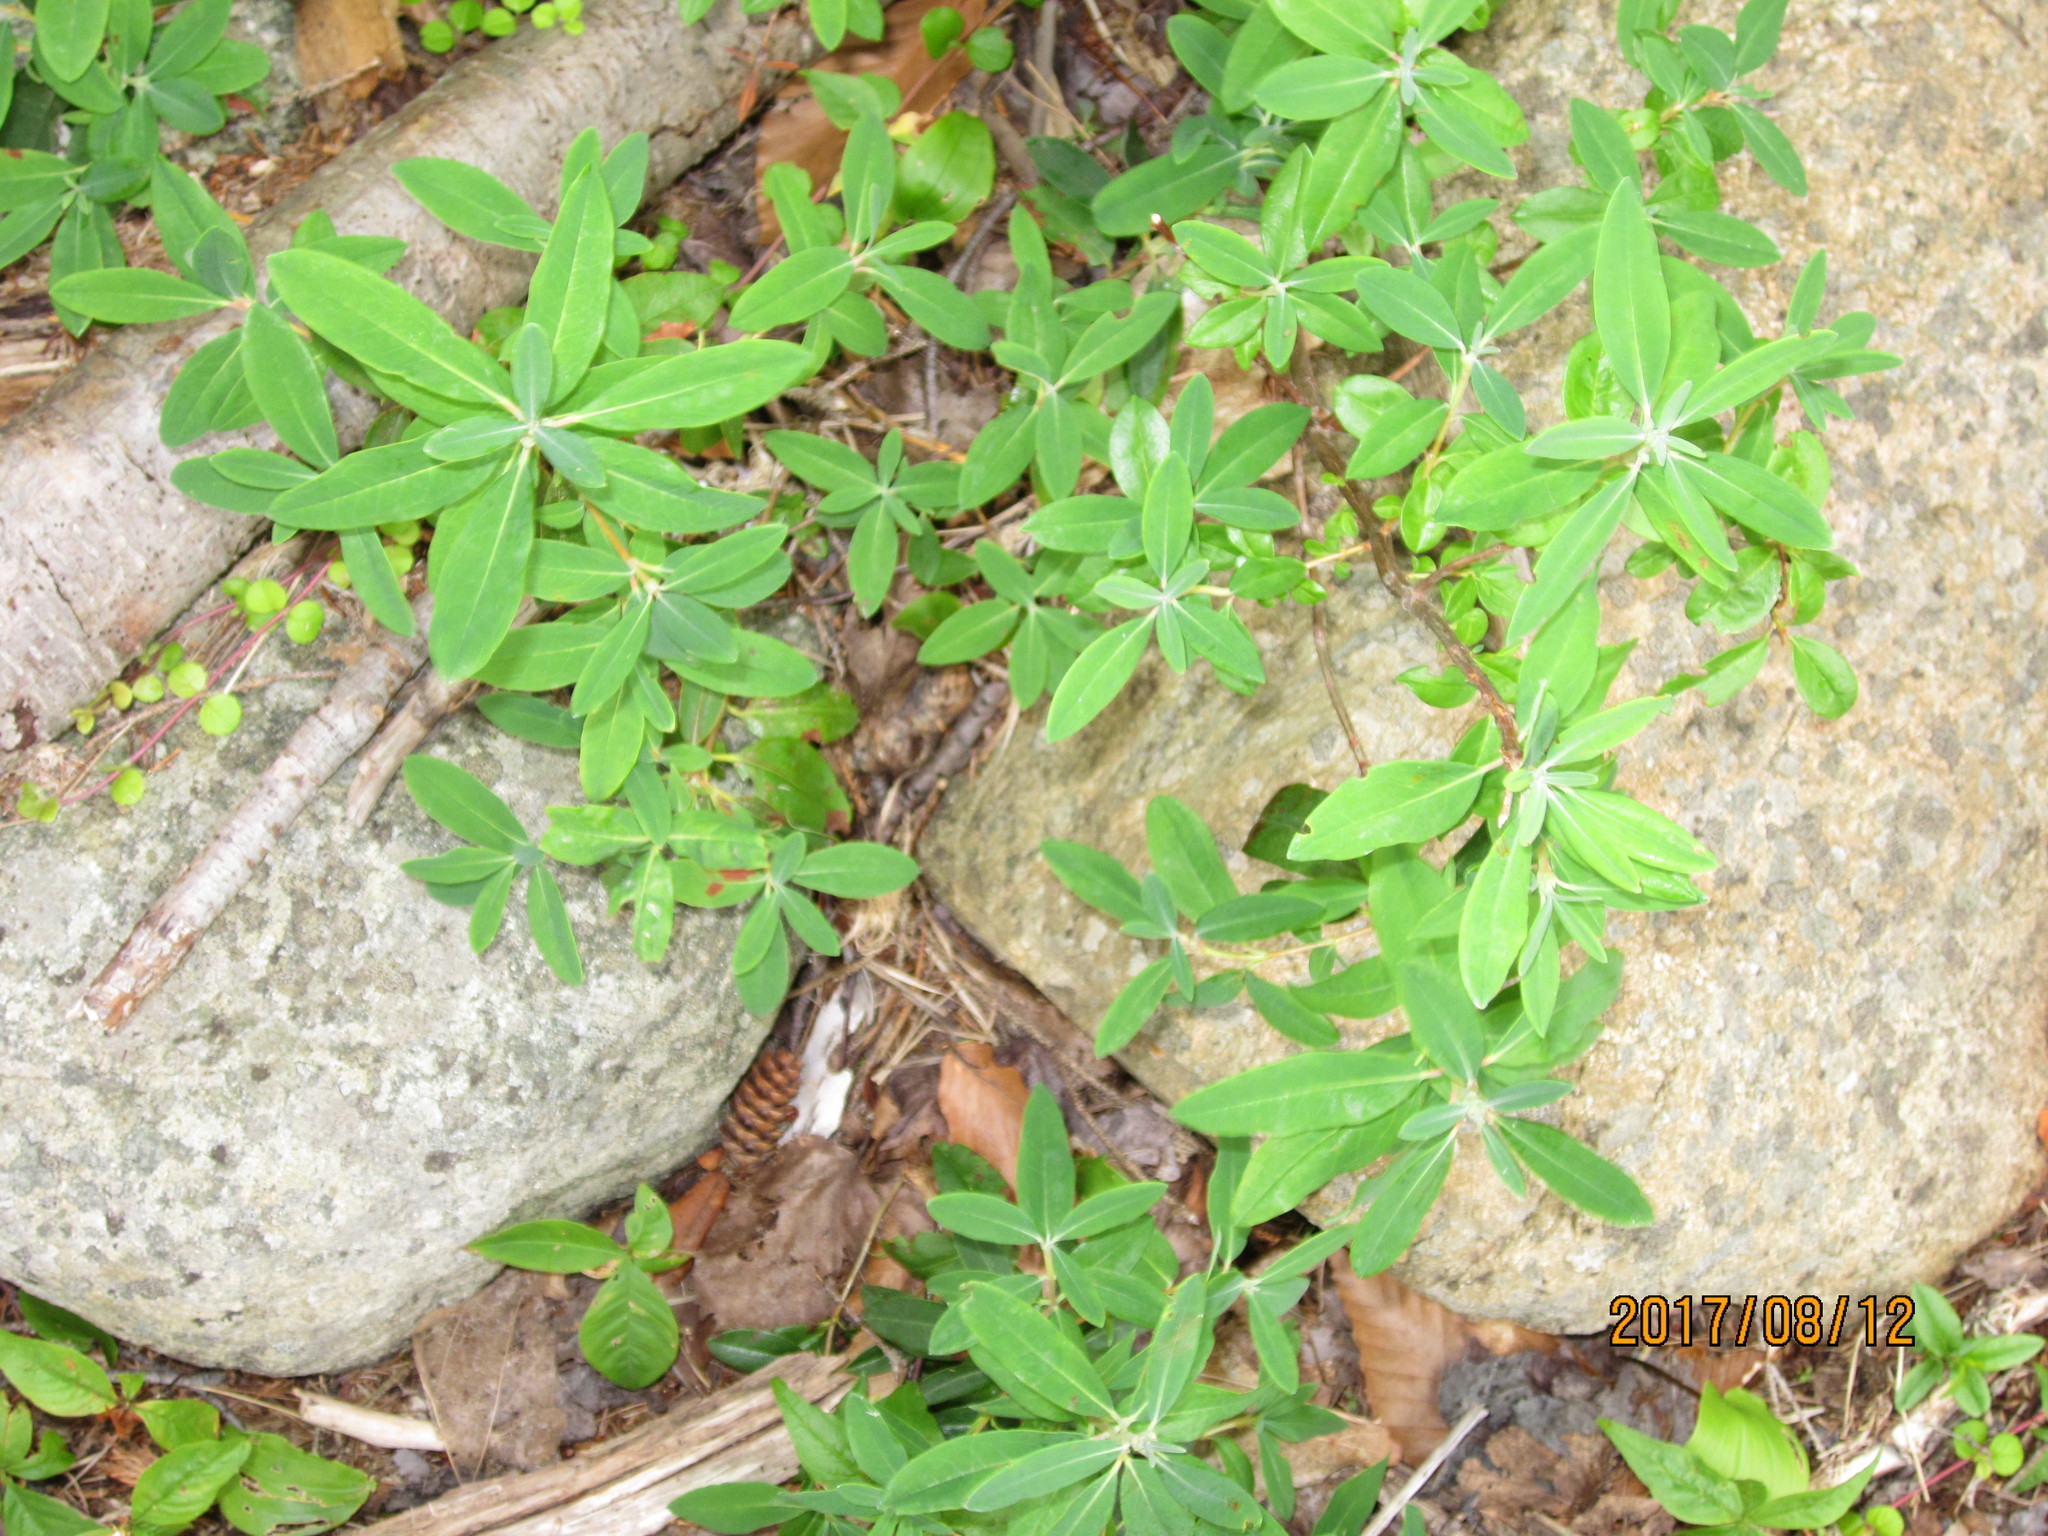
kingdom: Plantae
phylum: Tracheophyta
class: Magnoliopsida
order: Ericales
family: Ericaceae
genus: Kalmia
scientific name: Kalmia angustifolia
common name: Sheep-laurel
